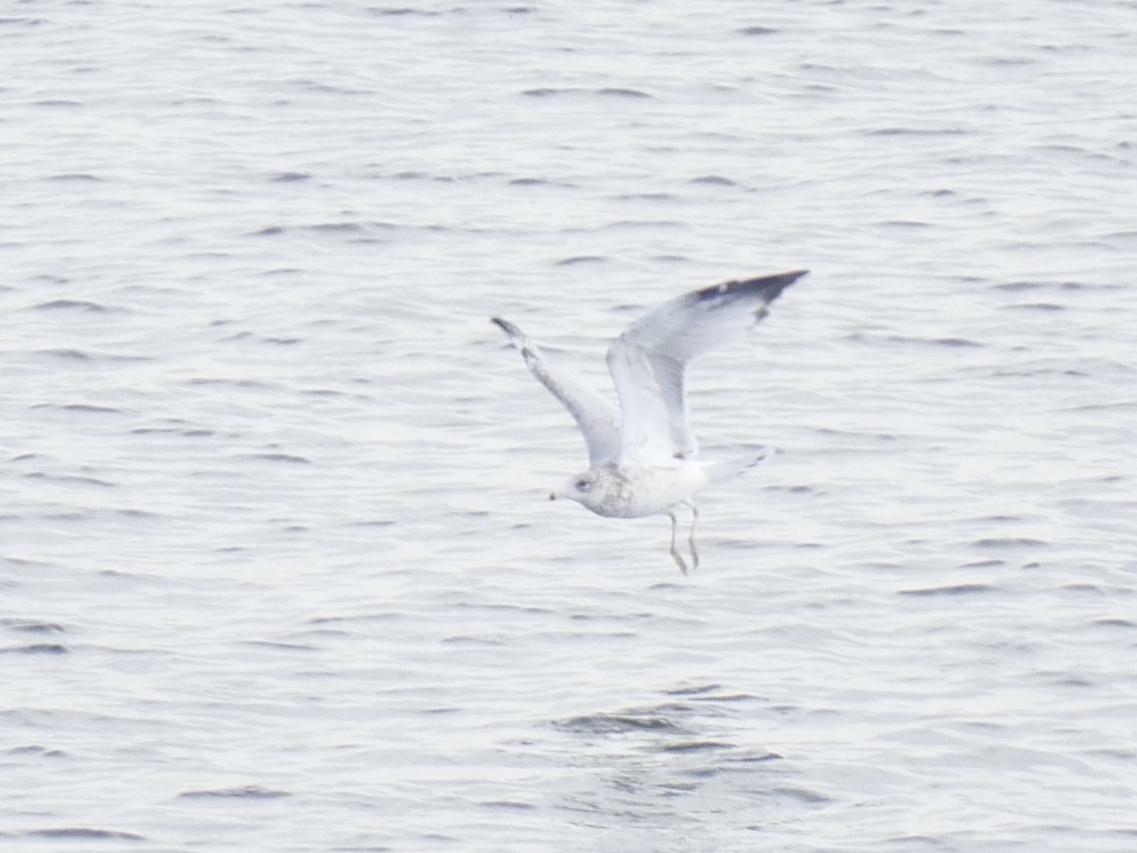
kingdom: Animalia
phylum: Chordata
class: Aves
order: Charadriiformes
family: Laridae
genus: Larus
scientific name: Larus delawarensis
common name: Ring-billed gull
